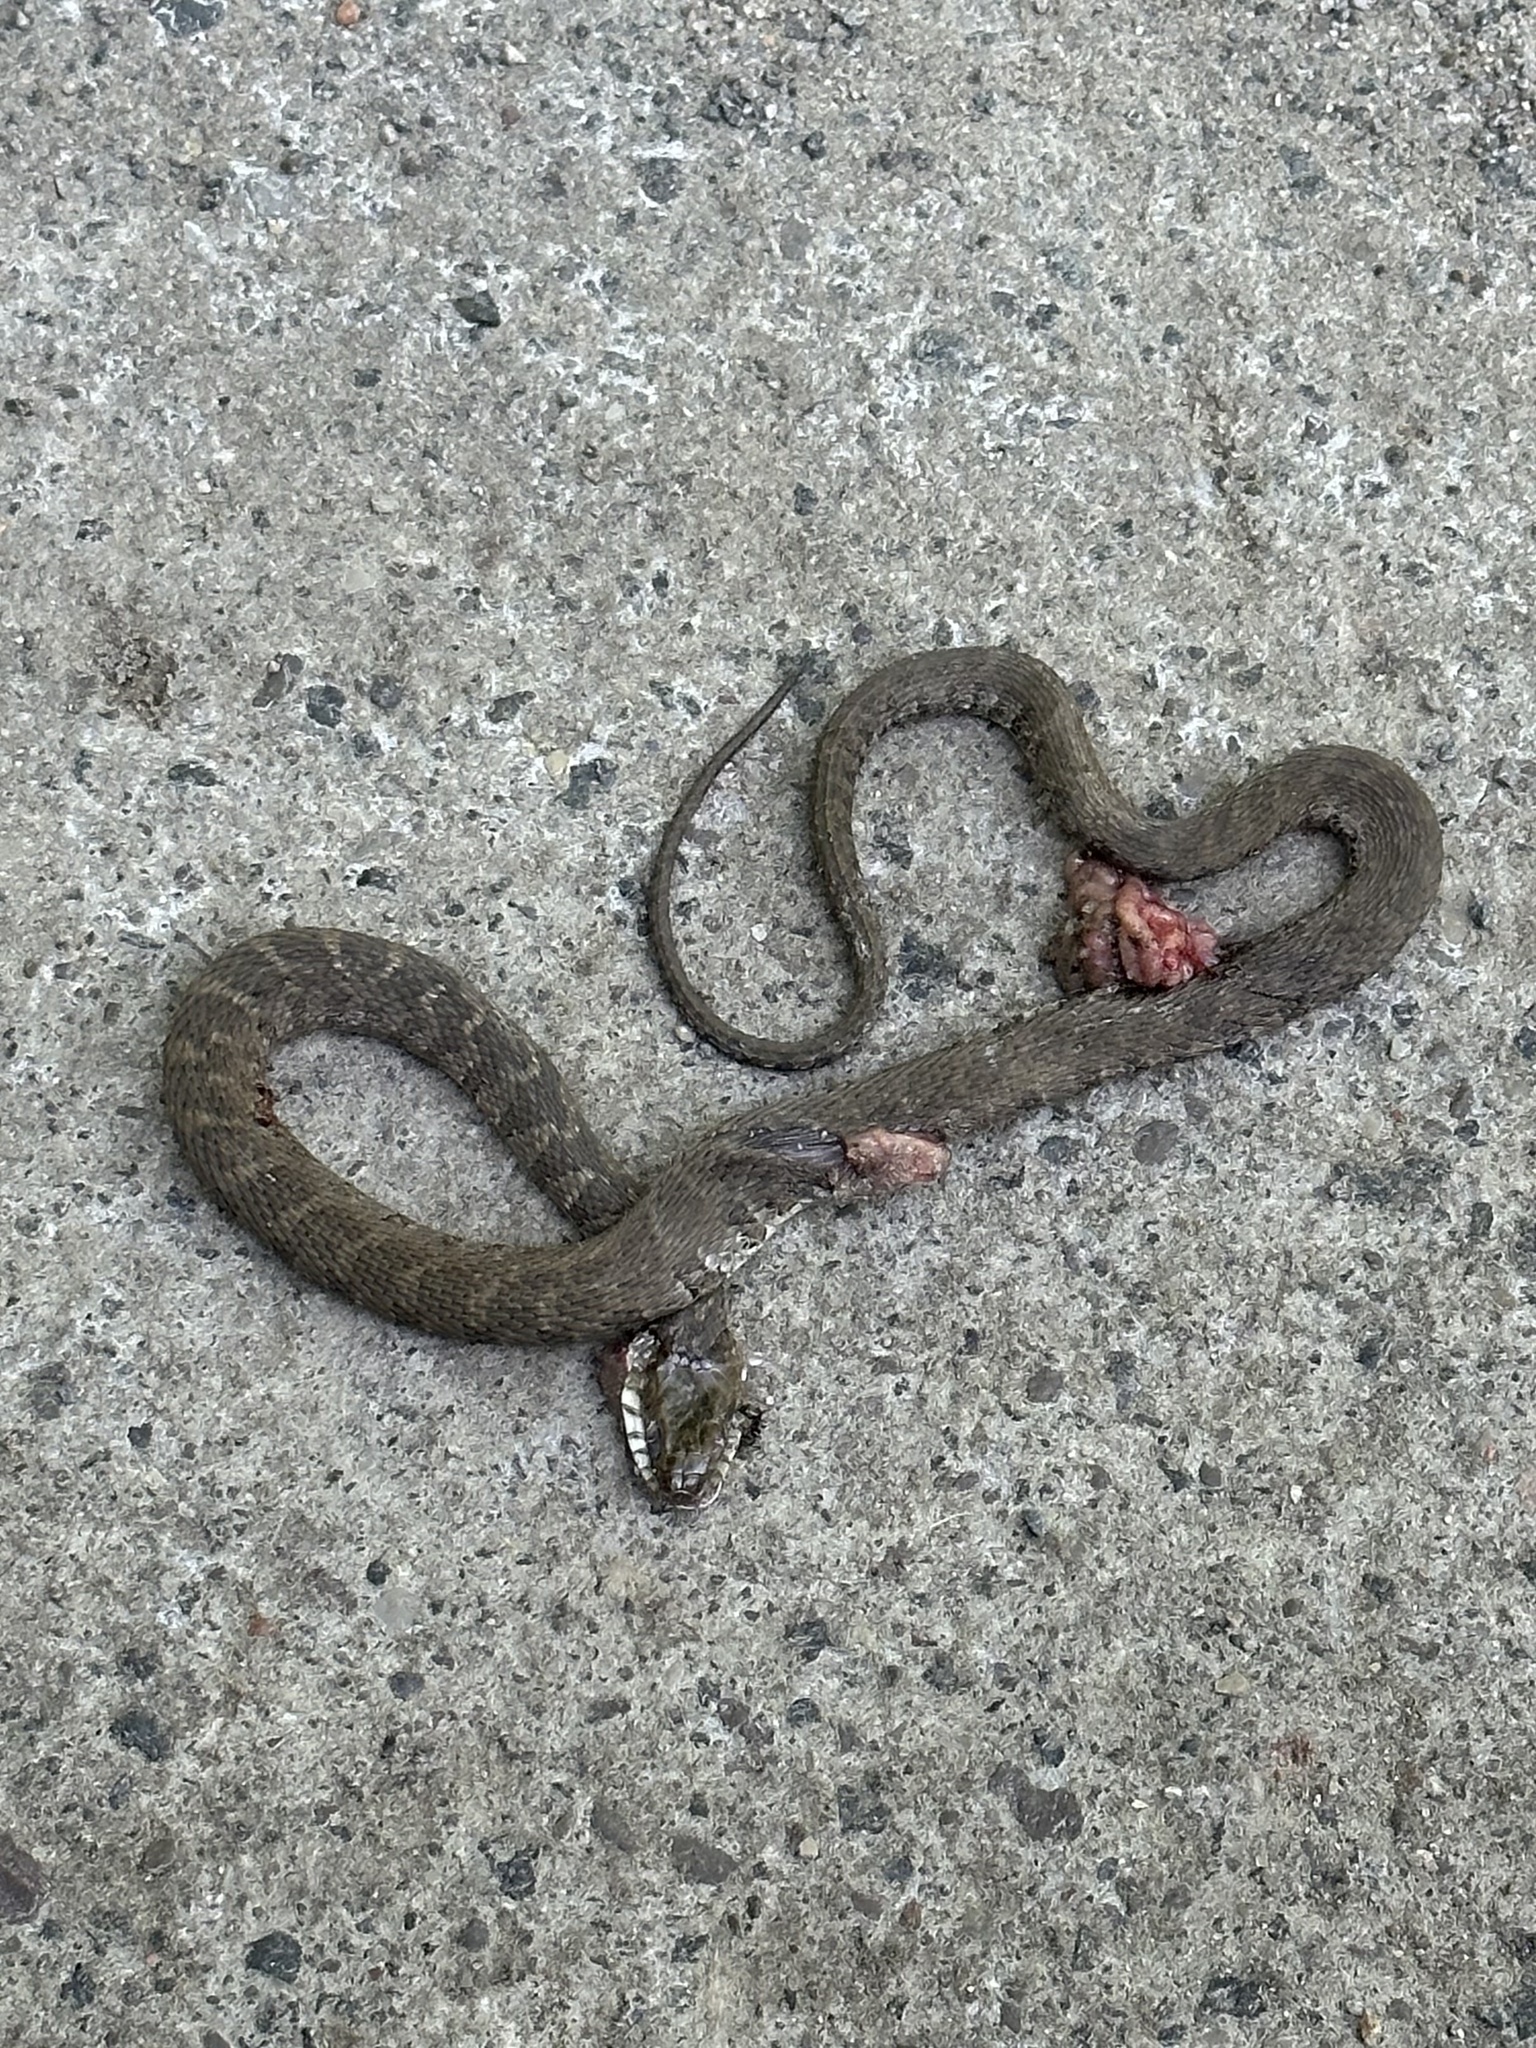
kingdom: Animalia
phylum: Chordata
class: Squamata
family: Colubridae
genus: Nerodia
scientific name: Nerodia sipedon
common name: Northern water snake
